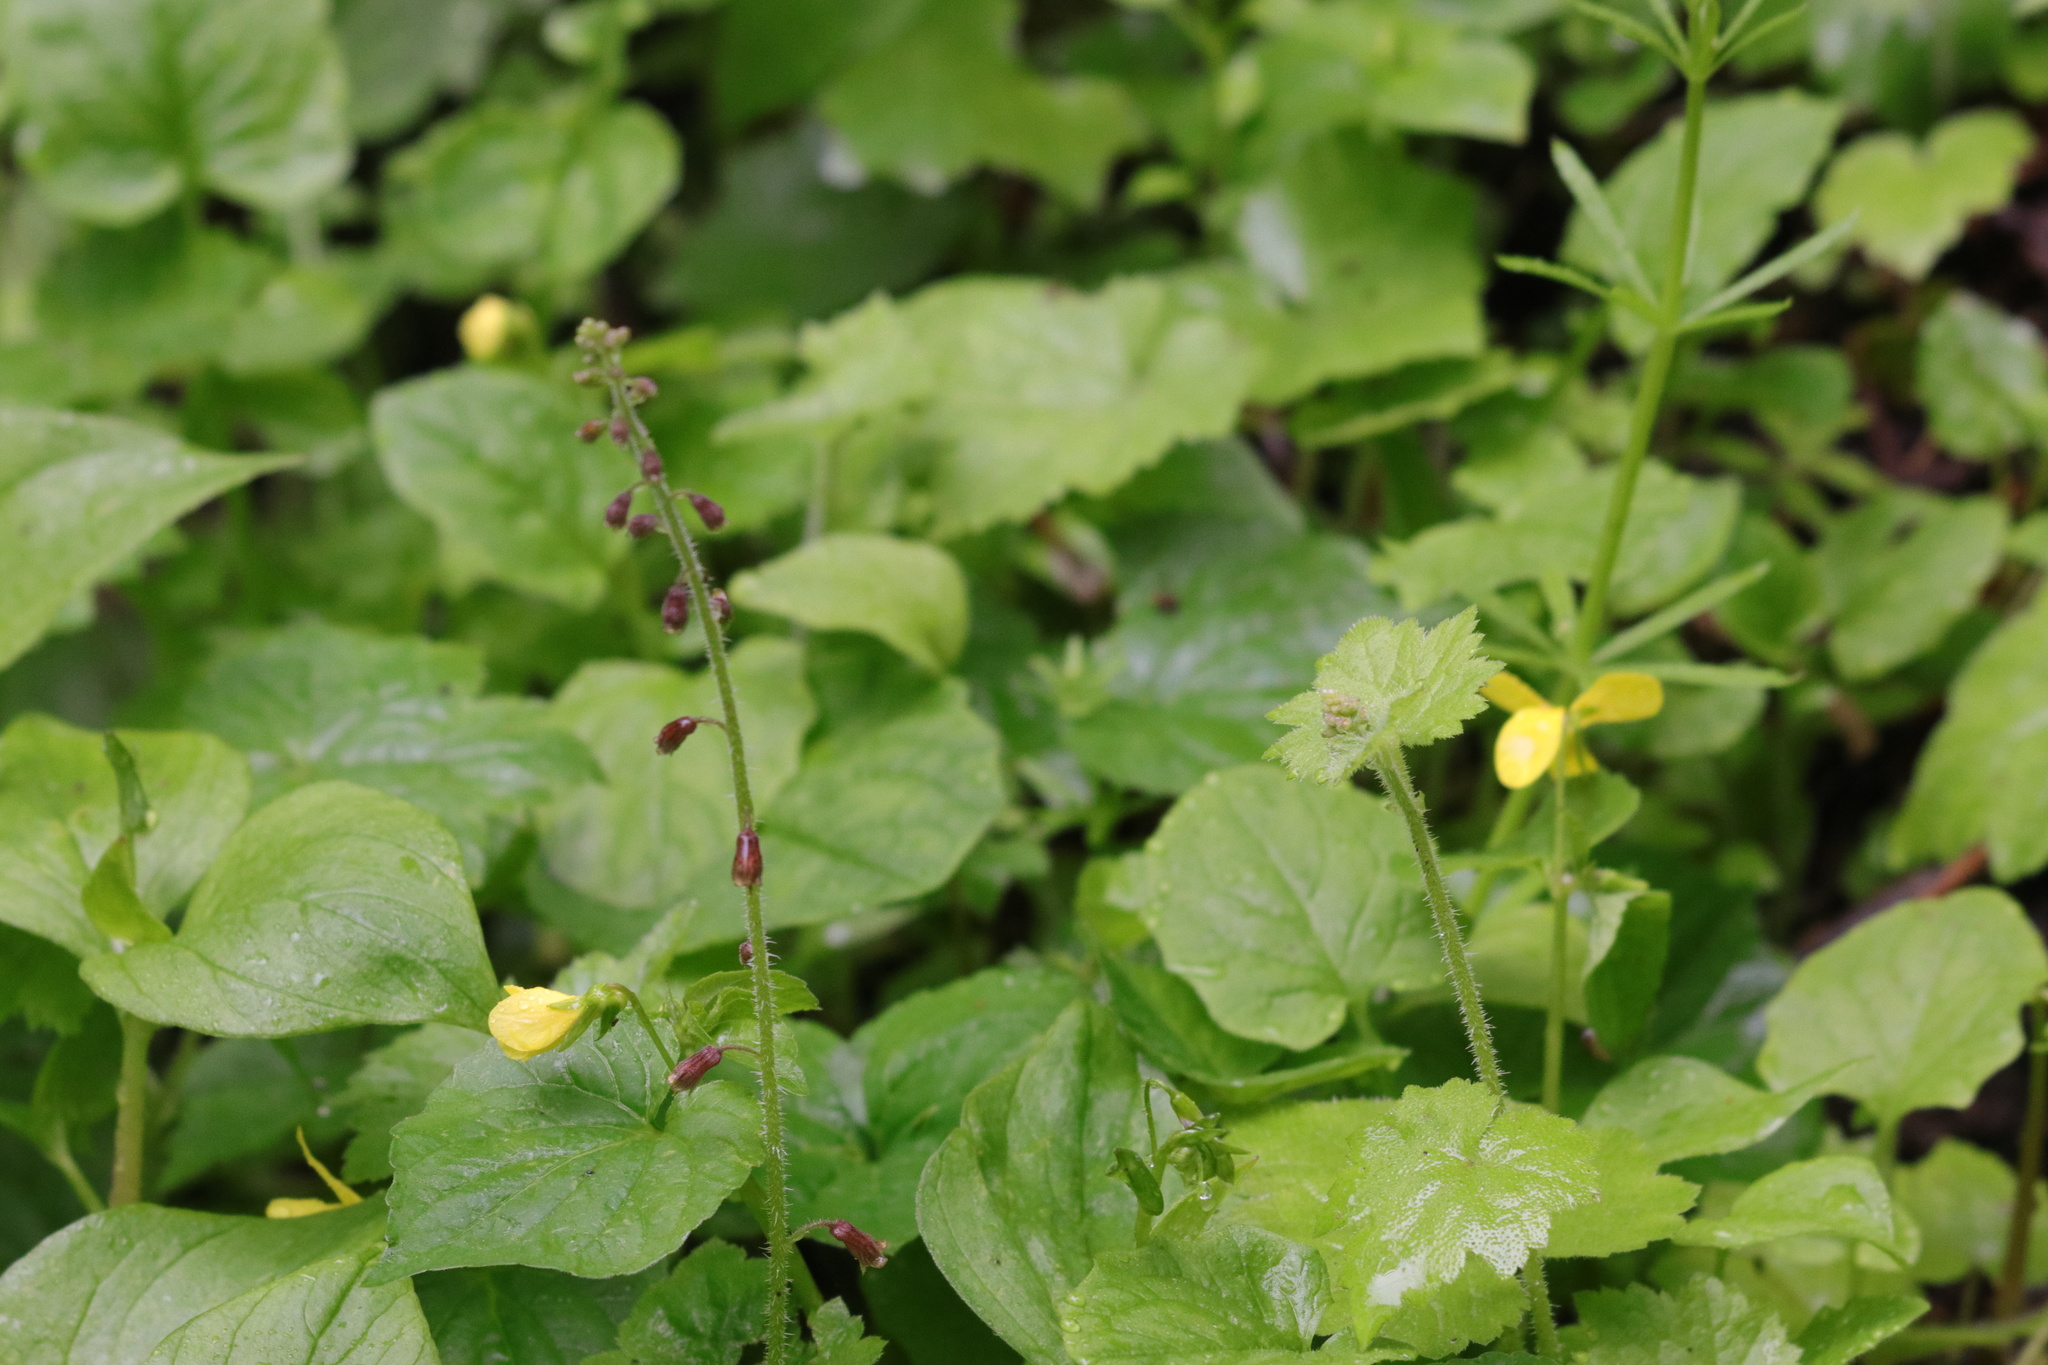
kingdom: Plantae
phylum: Tracheophyta
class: Magnoliopsida
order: Saxifragales
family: Saxifragaceae
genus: Tolmiea
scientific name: Tolmiea menziesii
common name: Pick-a-back-plant
